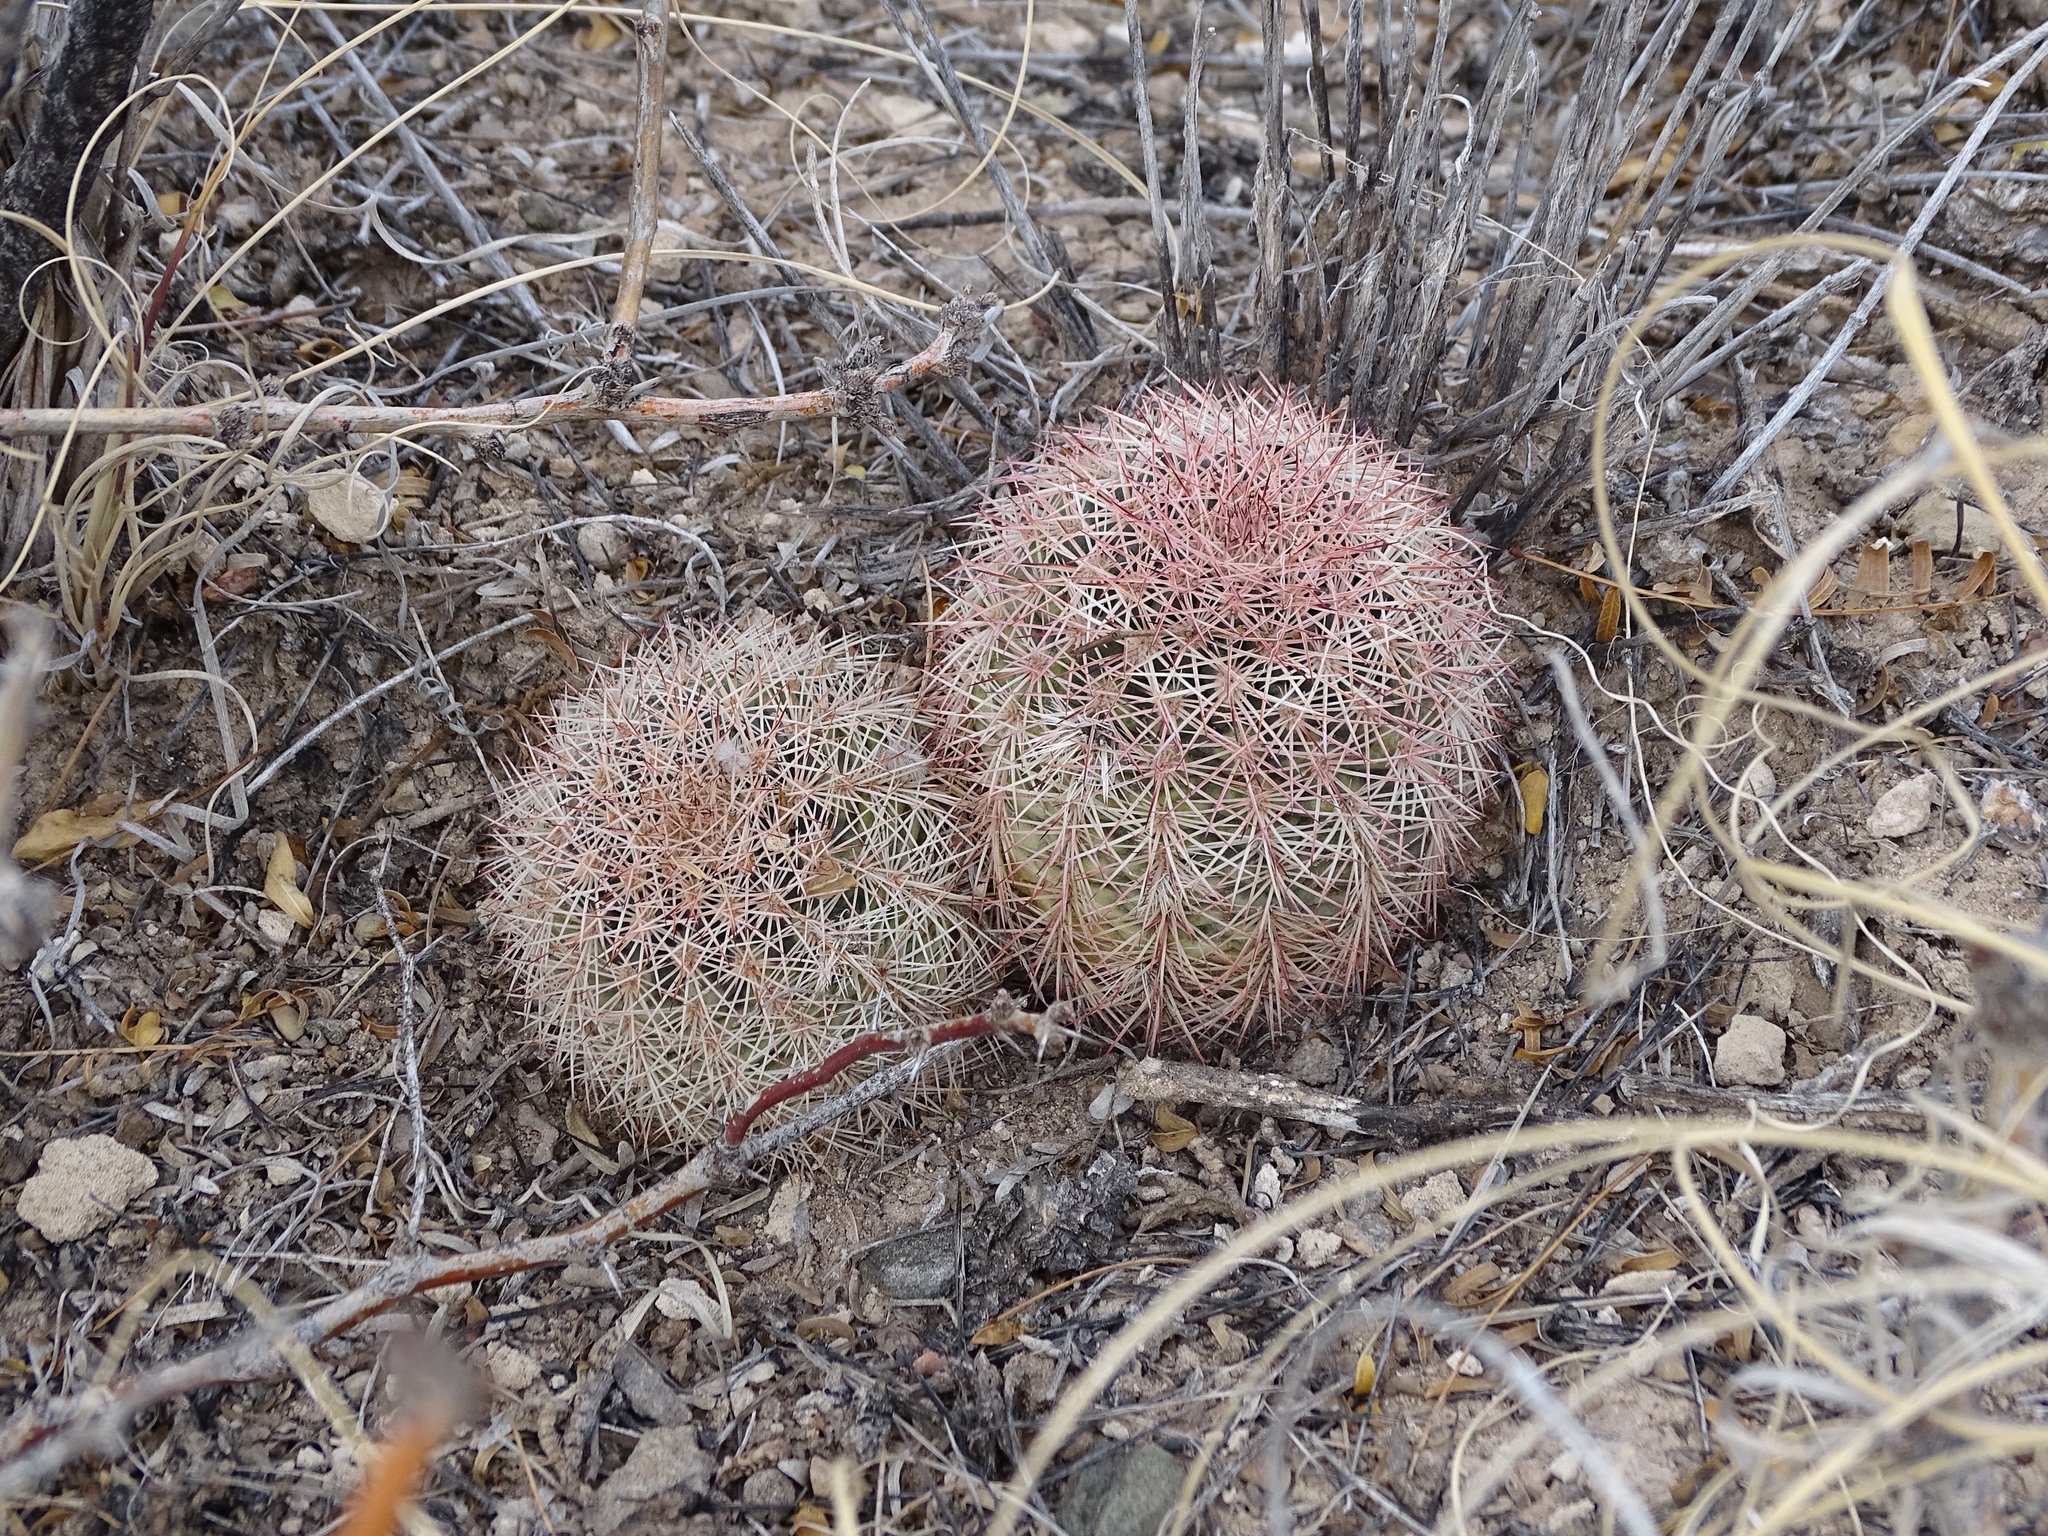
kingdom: Plantae
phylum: Tracheophyta
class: Magnoliopsida
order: Caryophyllales
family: Cactaceae
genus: Echinocereus
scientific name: Echinocereus dasyacanthus
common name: Spiny hedgehog cactus
